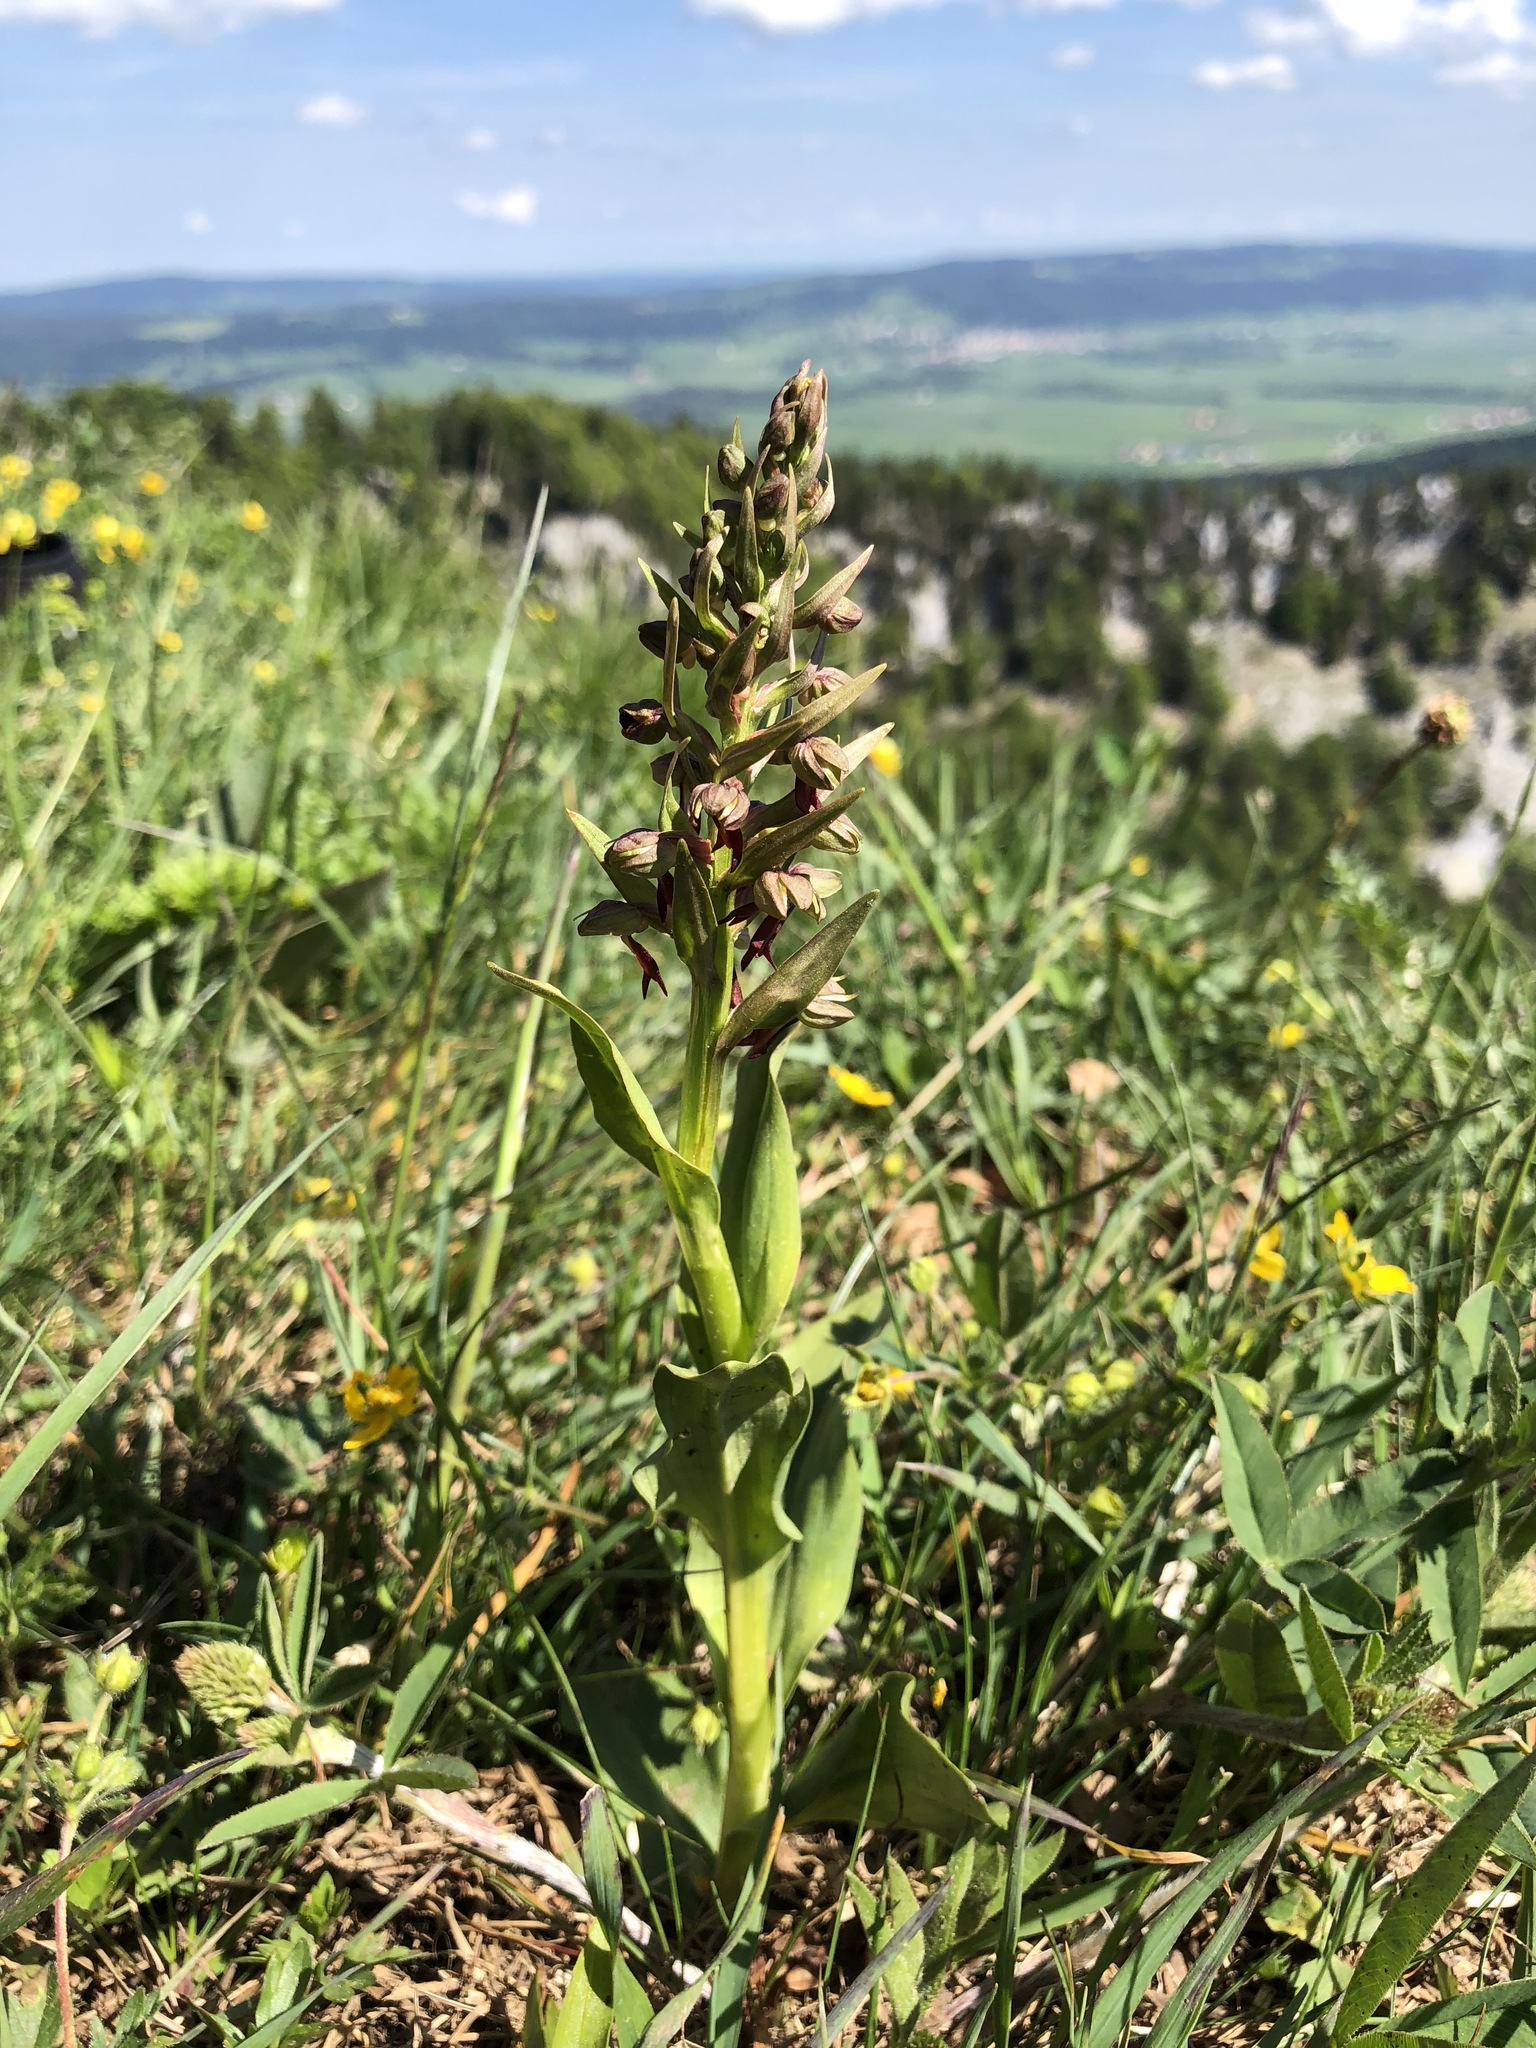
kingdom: Plantae
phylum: Tracheophyta
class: Liliopsida
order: Asparagales
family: Orchidaceae
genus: Dactylorhiza
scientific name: Dactylorhiza viridis
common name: Longbract frog orchid
